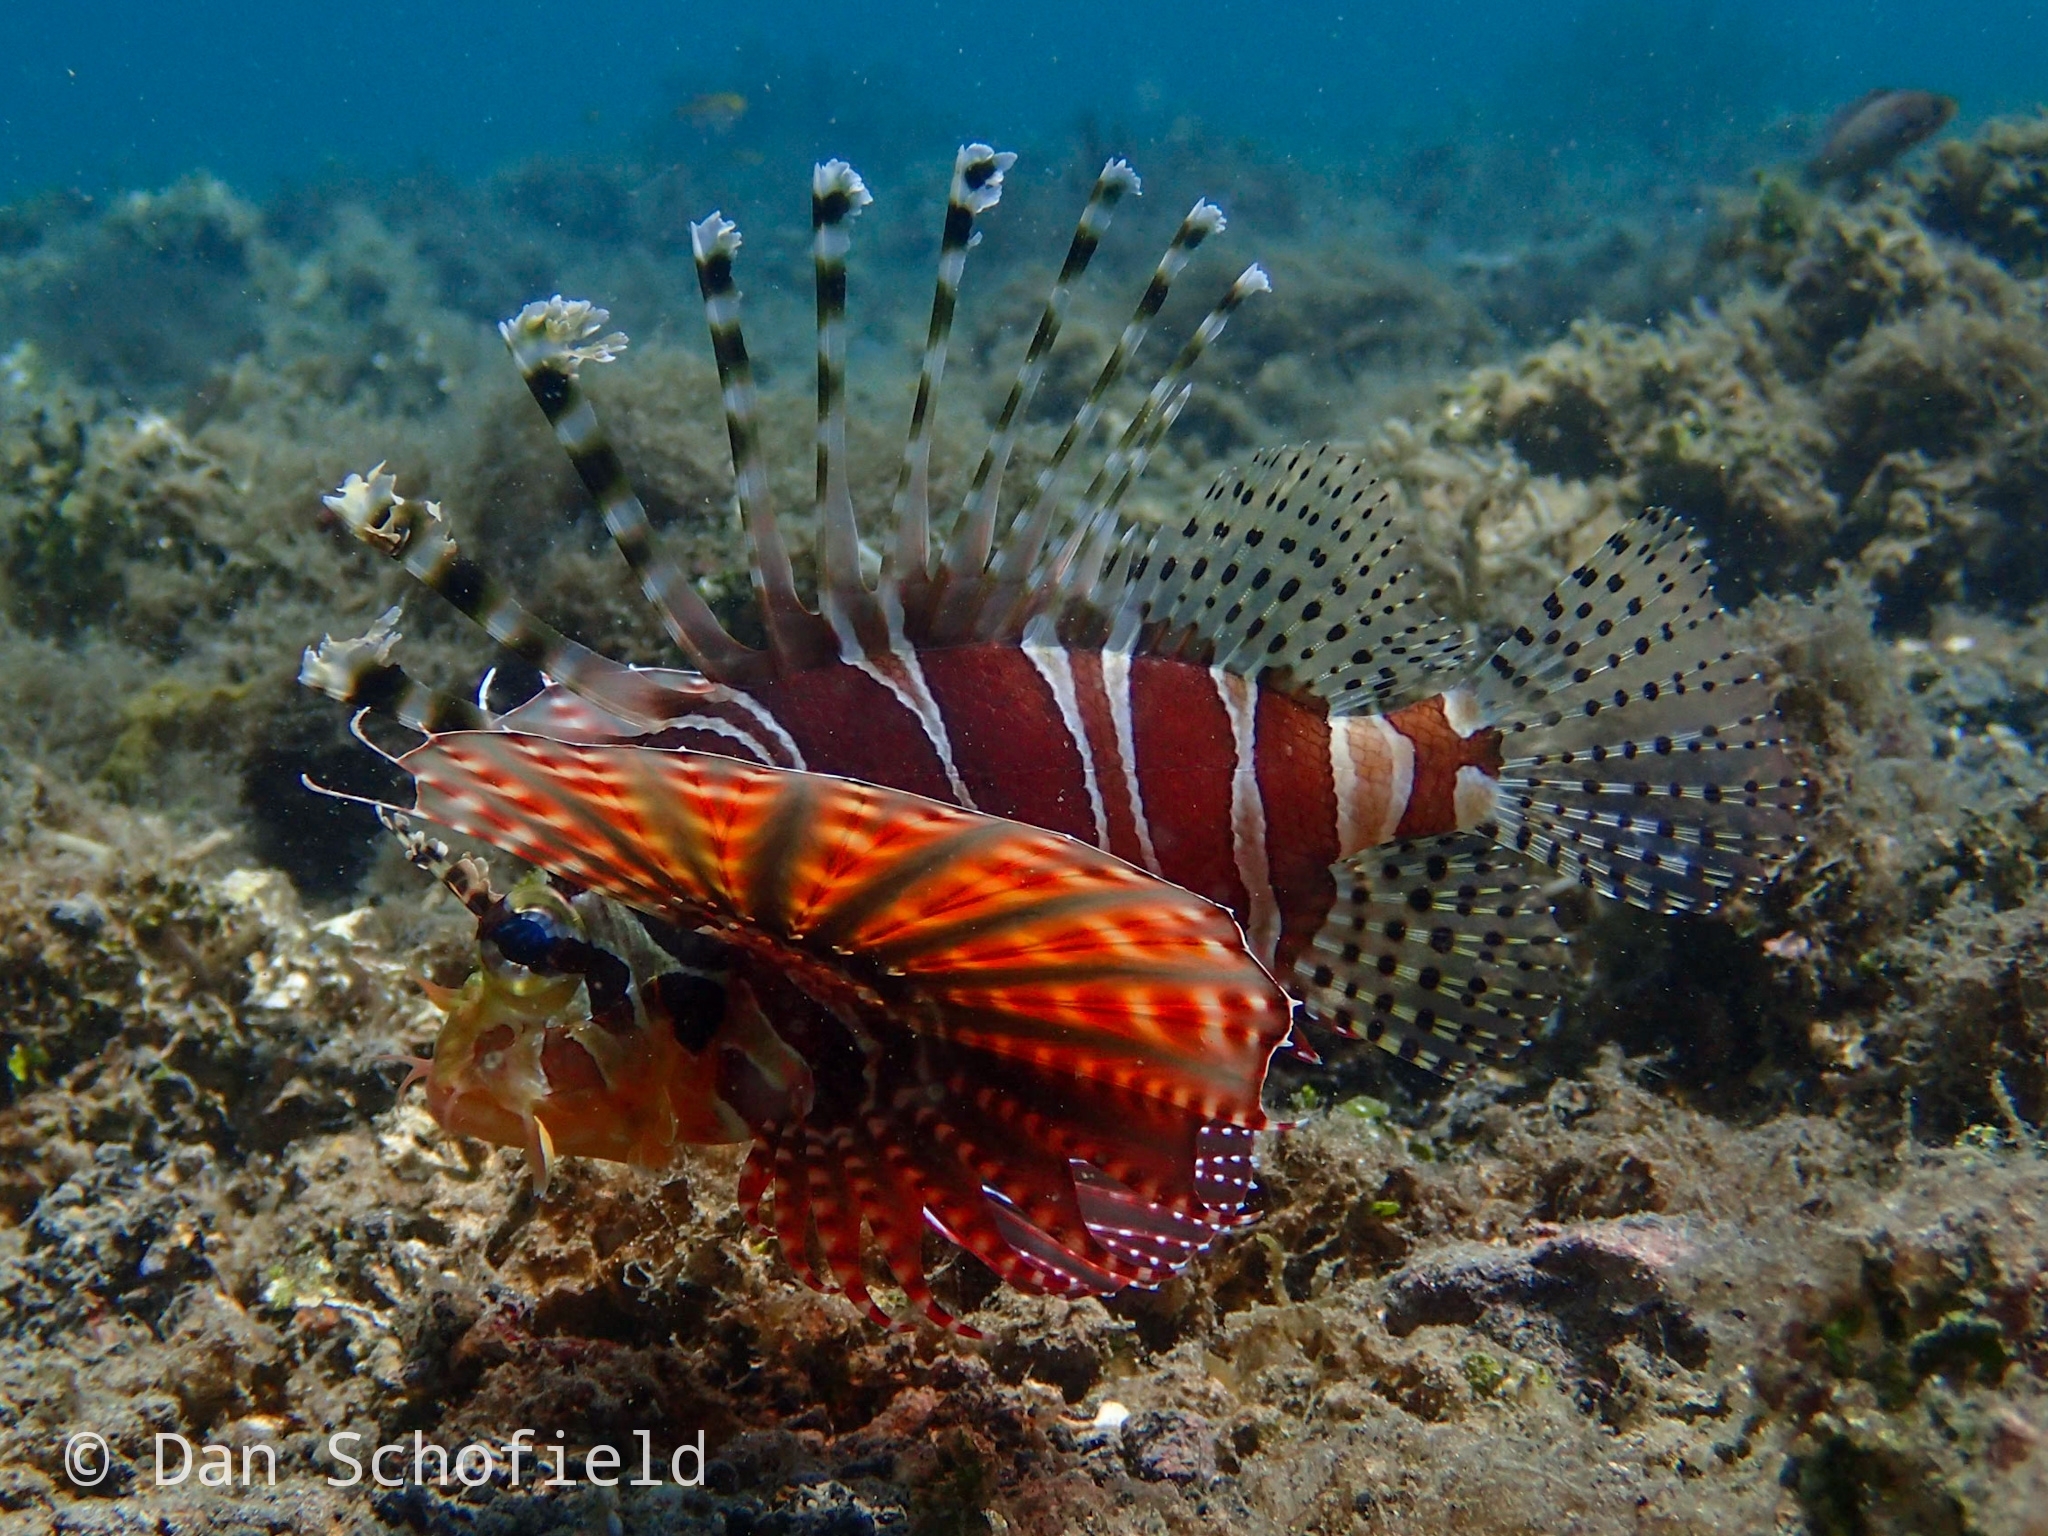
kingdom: Animalia
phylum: Chordata
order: Scorpaeniformes
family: Scorpaenidae
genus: Dendrochirus
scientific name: Dendrochirus zebra
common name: Zebra lionfish
